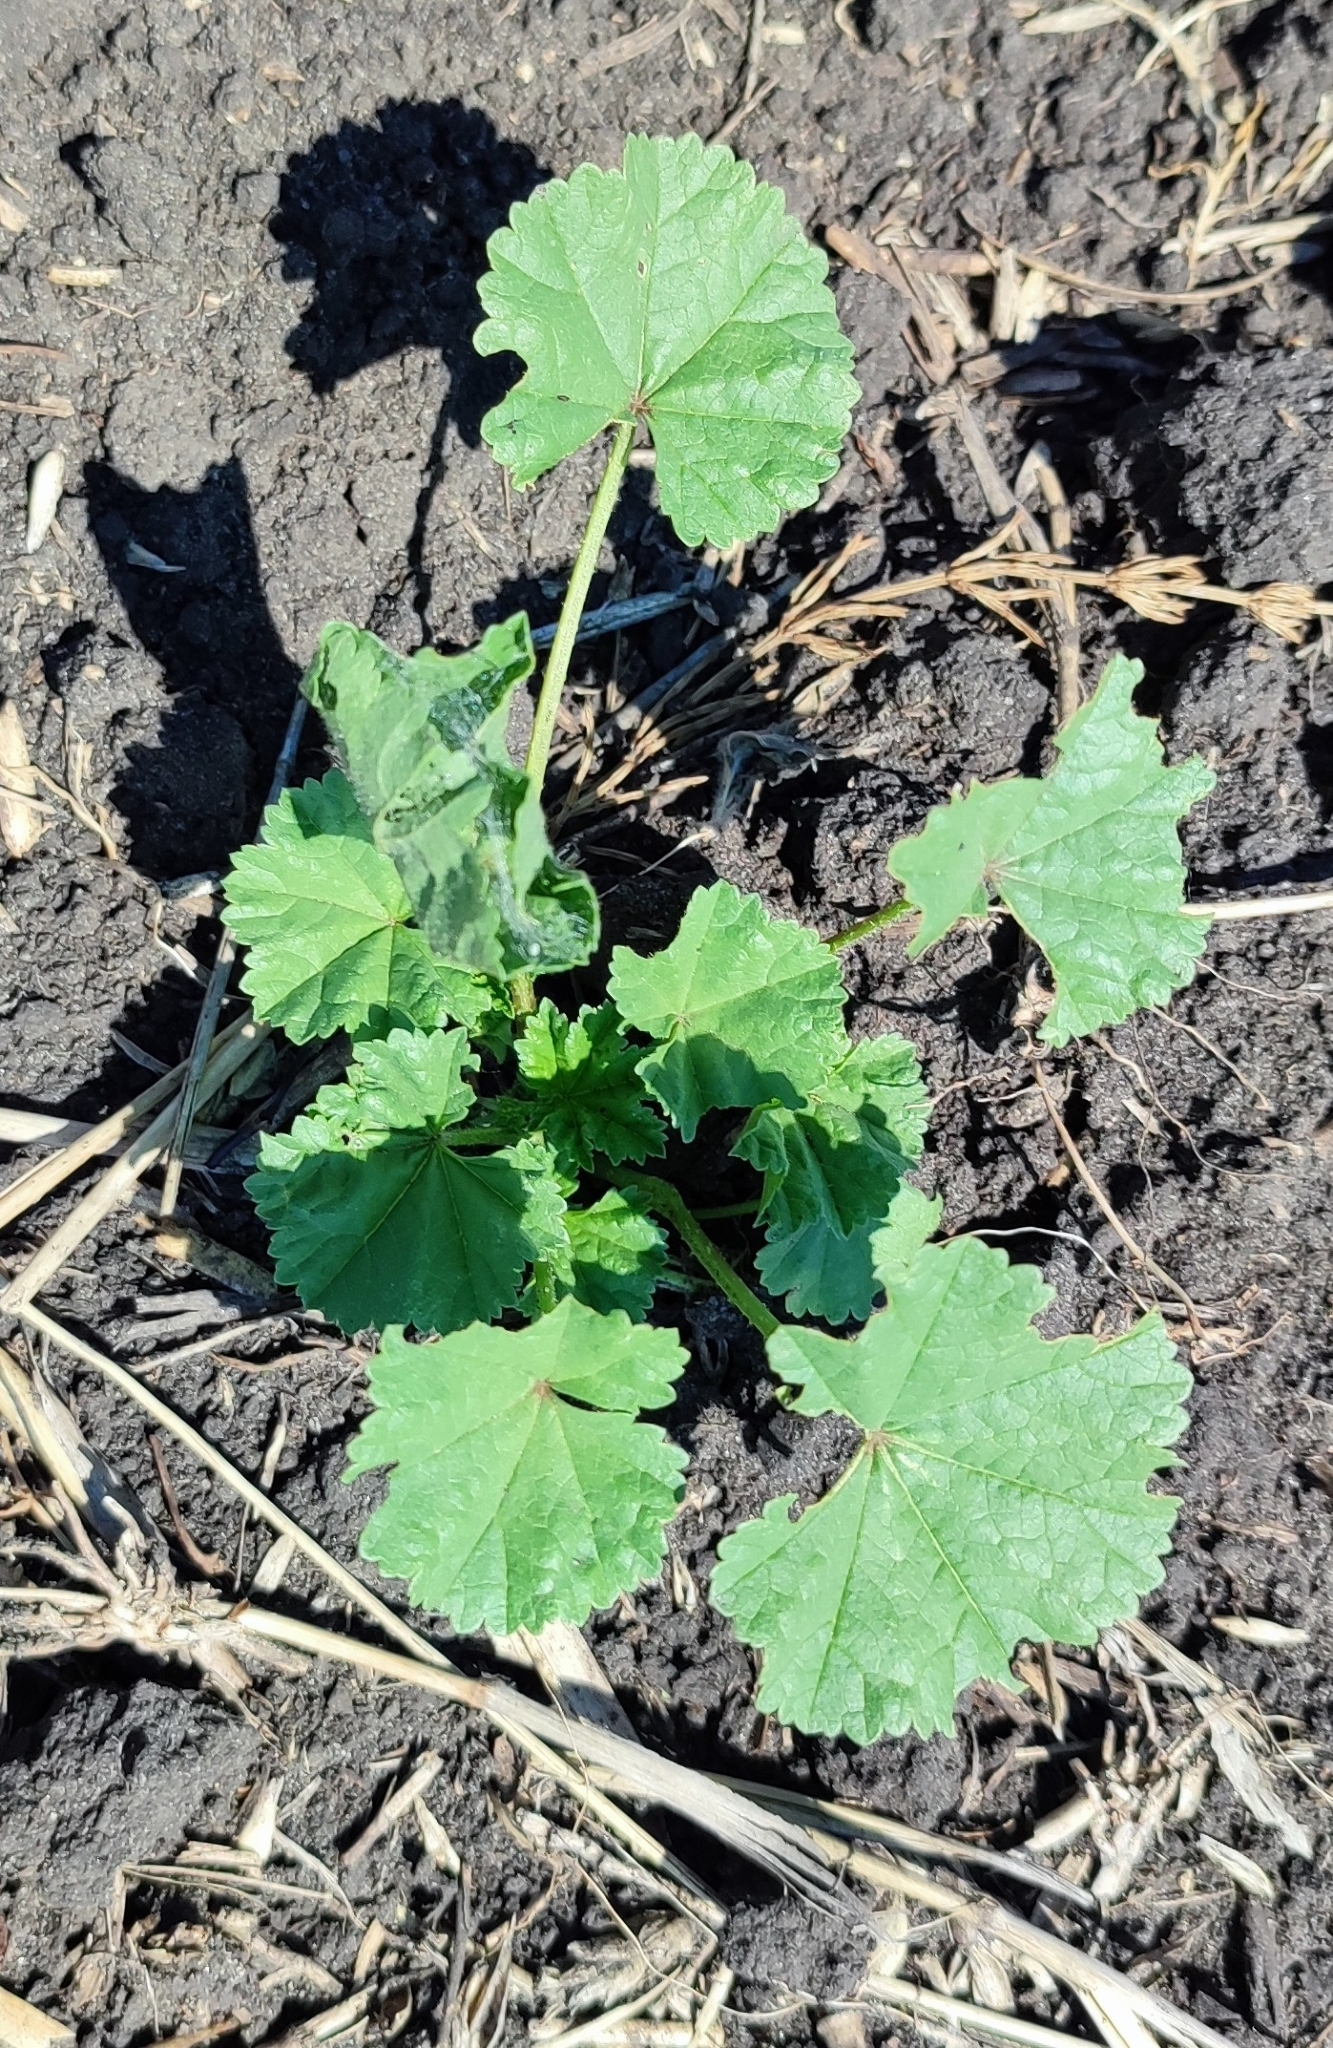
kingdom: Plantae
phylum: Tracheophyta
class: Magnoliopsida
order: Malvales
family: Malvaceae
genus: Malva
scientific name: Malva pusilla
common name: Small mallow
